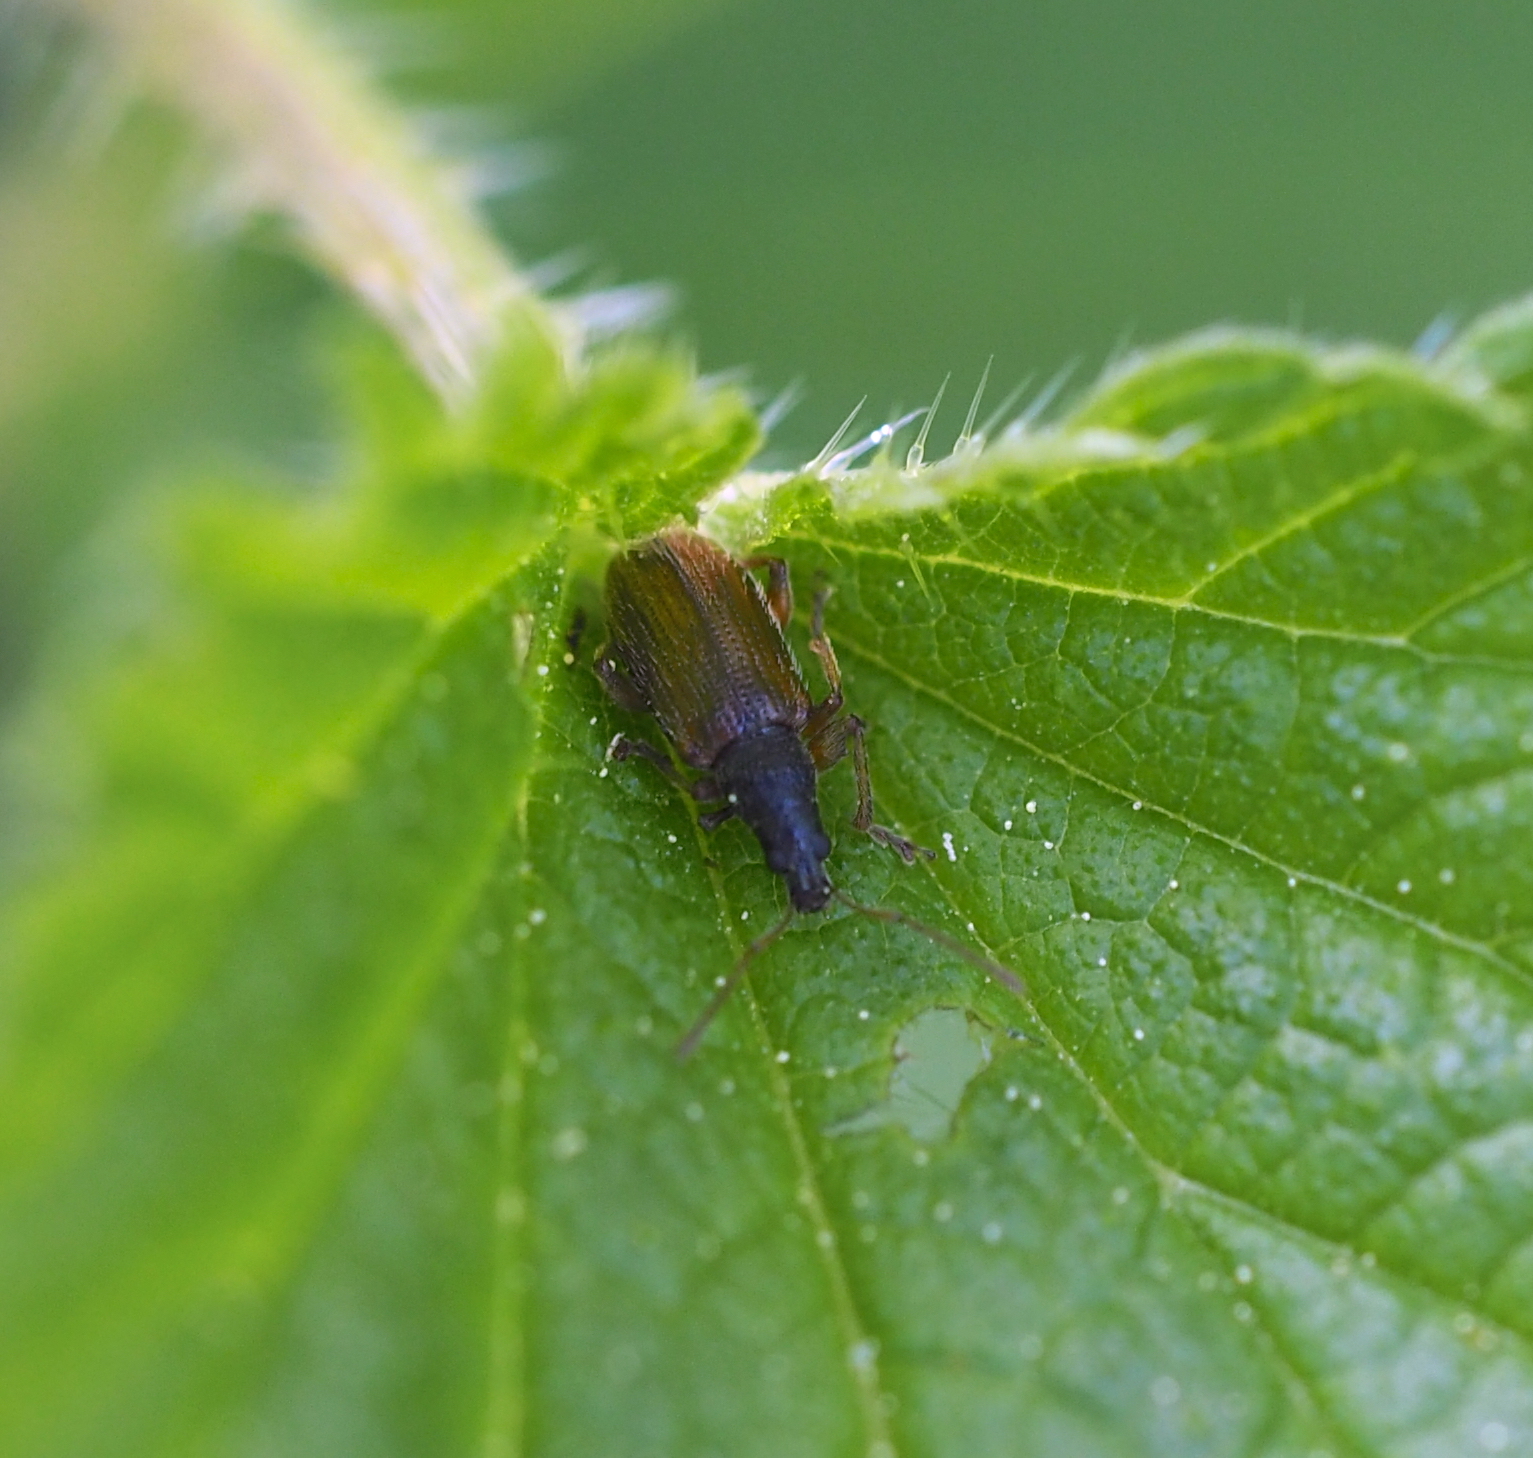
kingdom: Animalia
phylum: Arthropoda
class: Insecta
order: Coleoptera
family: Curculionidae
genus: Phyllobius
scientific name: Phyllobius oblongus
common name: Brown leaf weevil
